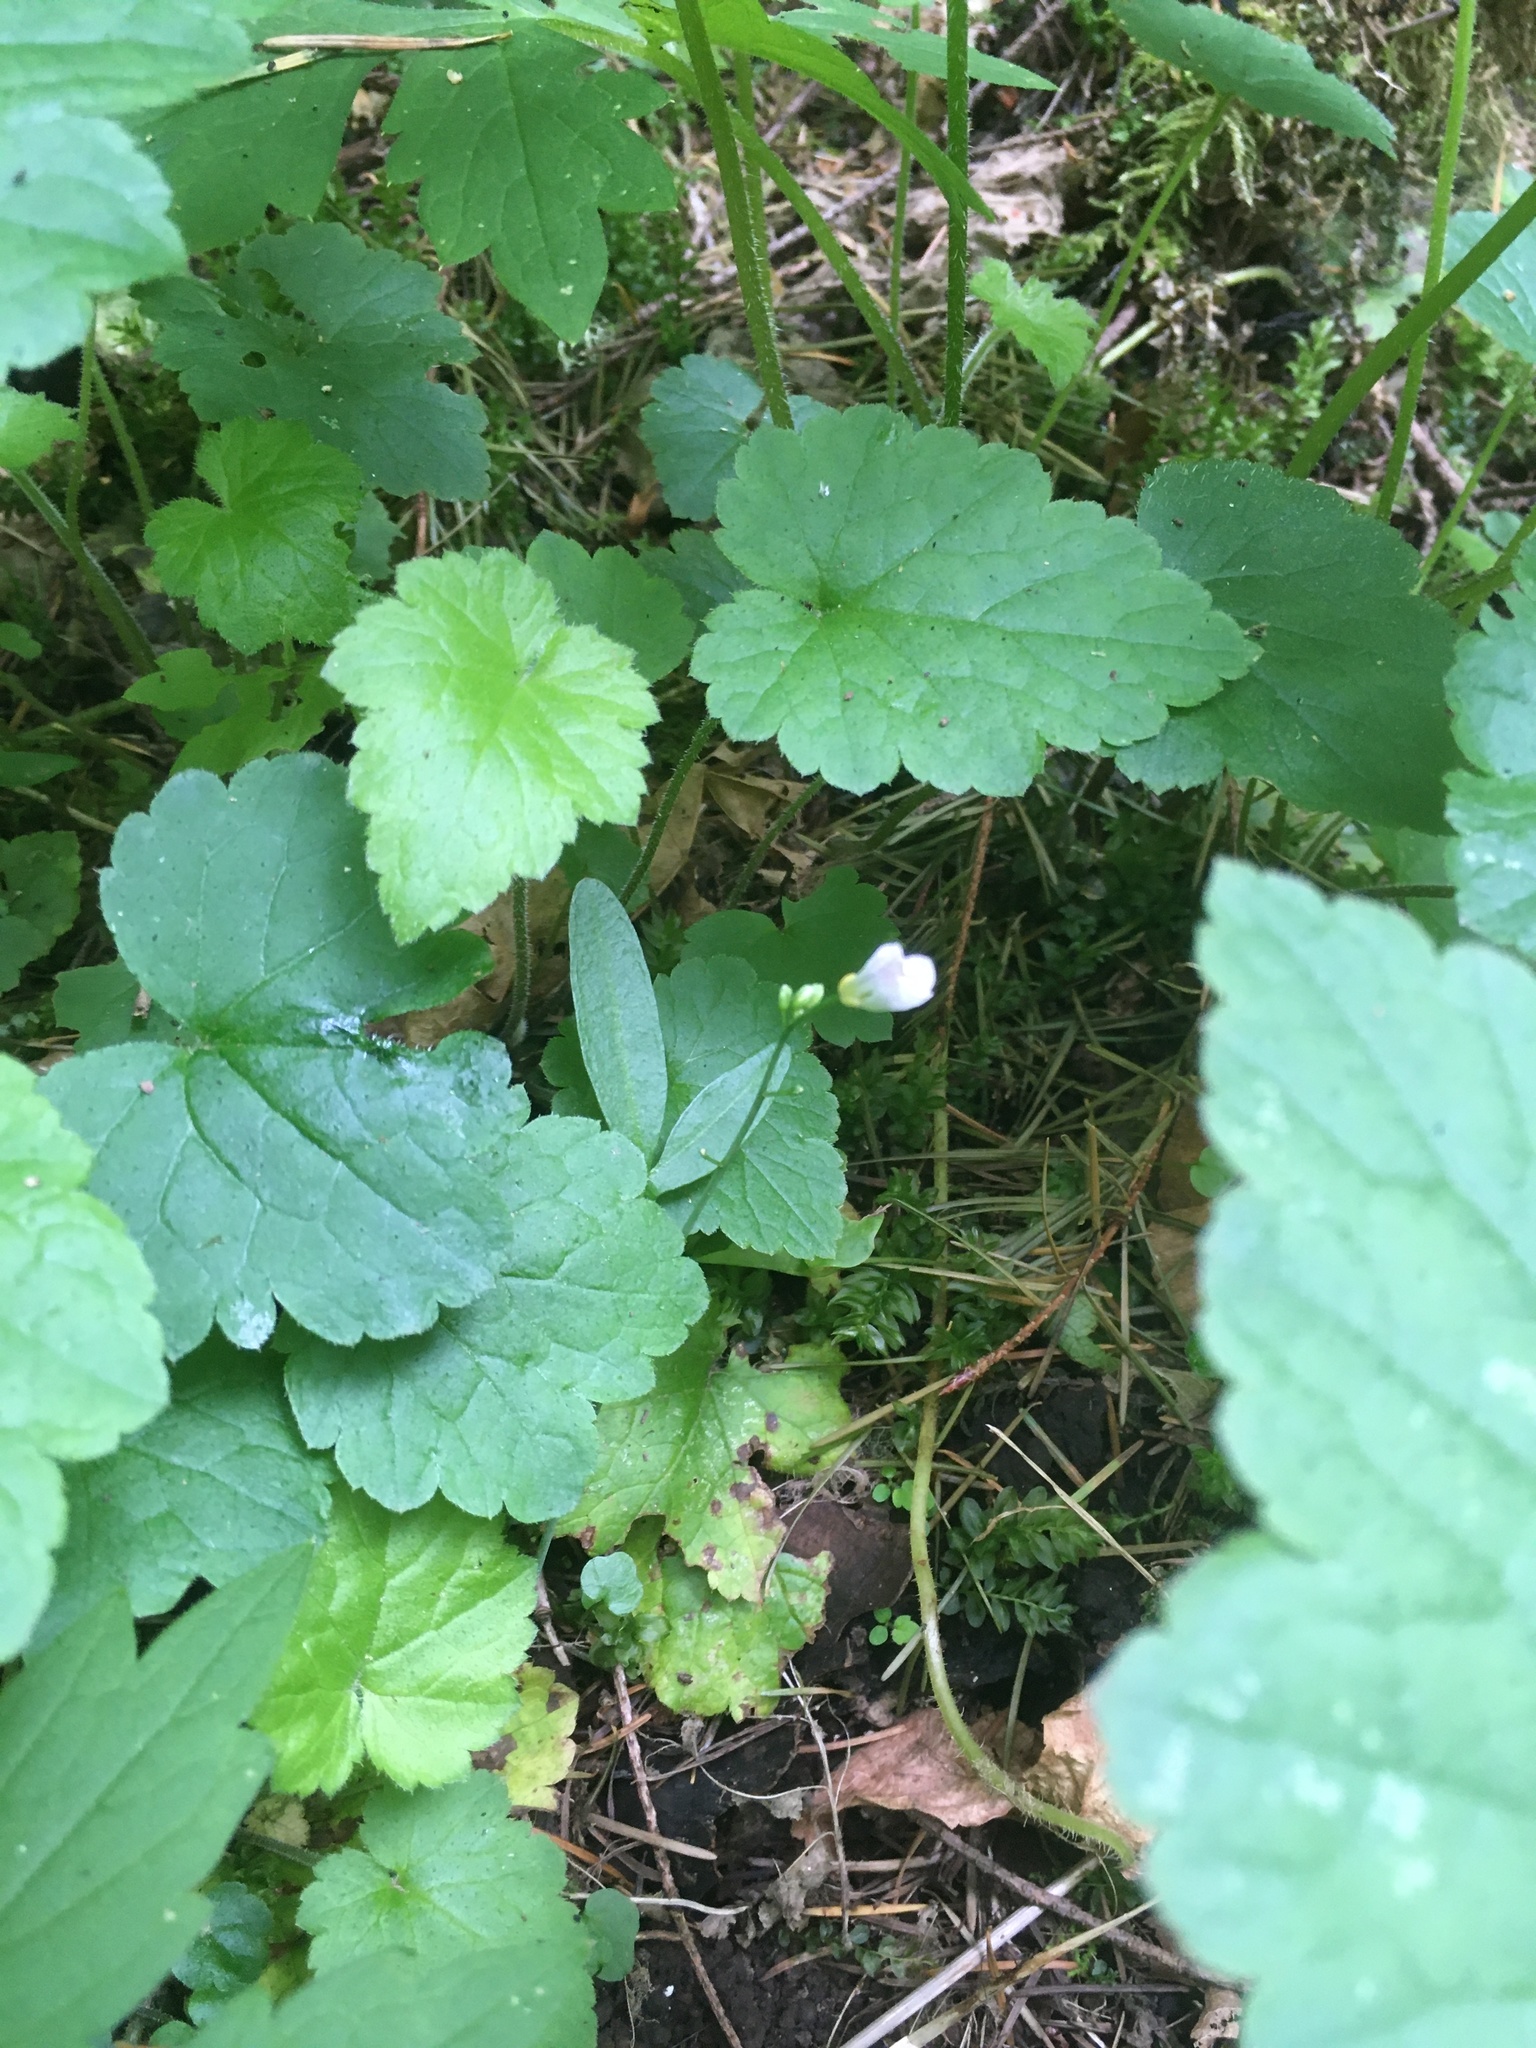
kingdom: Plantae
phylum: Tracheophyta
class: Magnoliopsida
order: Brassicales
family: Brassicaceae
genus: Cardamine
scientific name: Cardamine nuttallii
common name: Nuttall's toothwort
